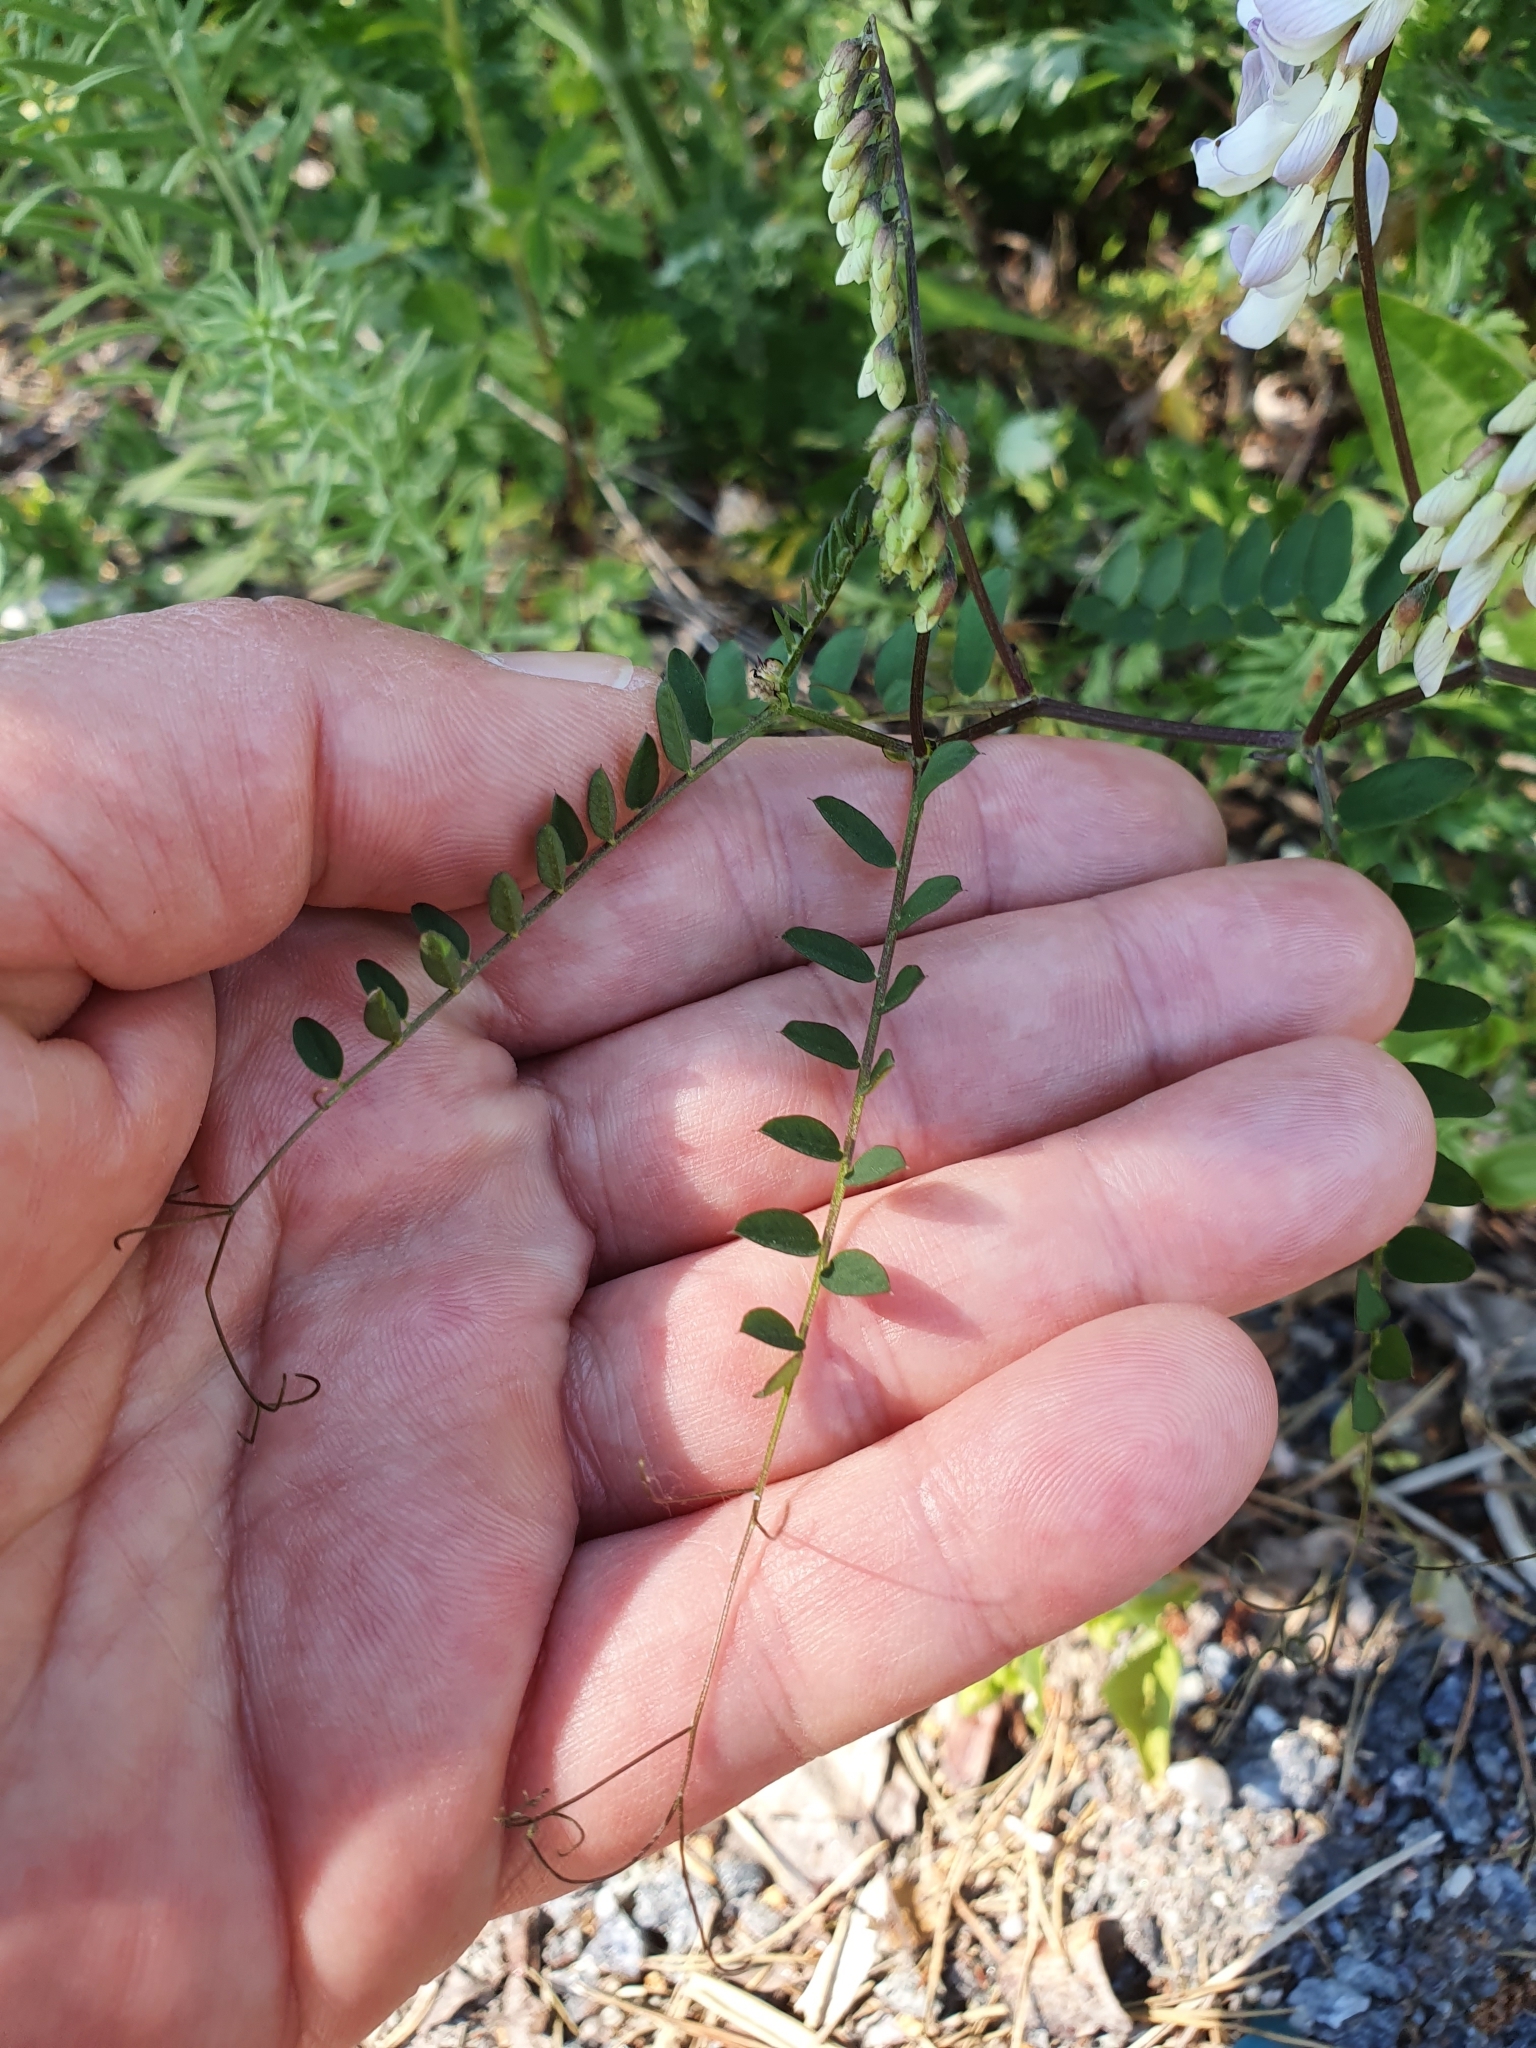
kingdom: Plantae
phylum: Tracheophyta
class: Magnoliopsida
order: Fabales
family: Fabaceae
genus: Vicia
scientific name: Vicia sylvatica
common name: Wood vetch
